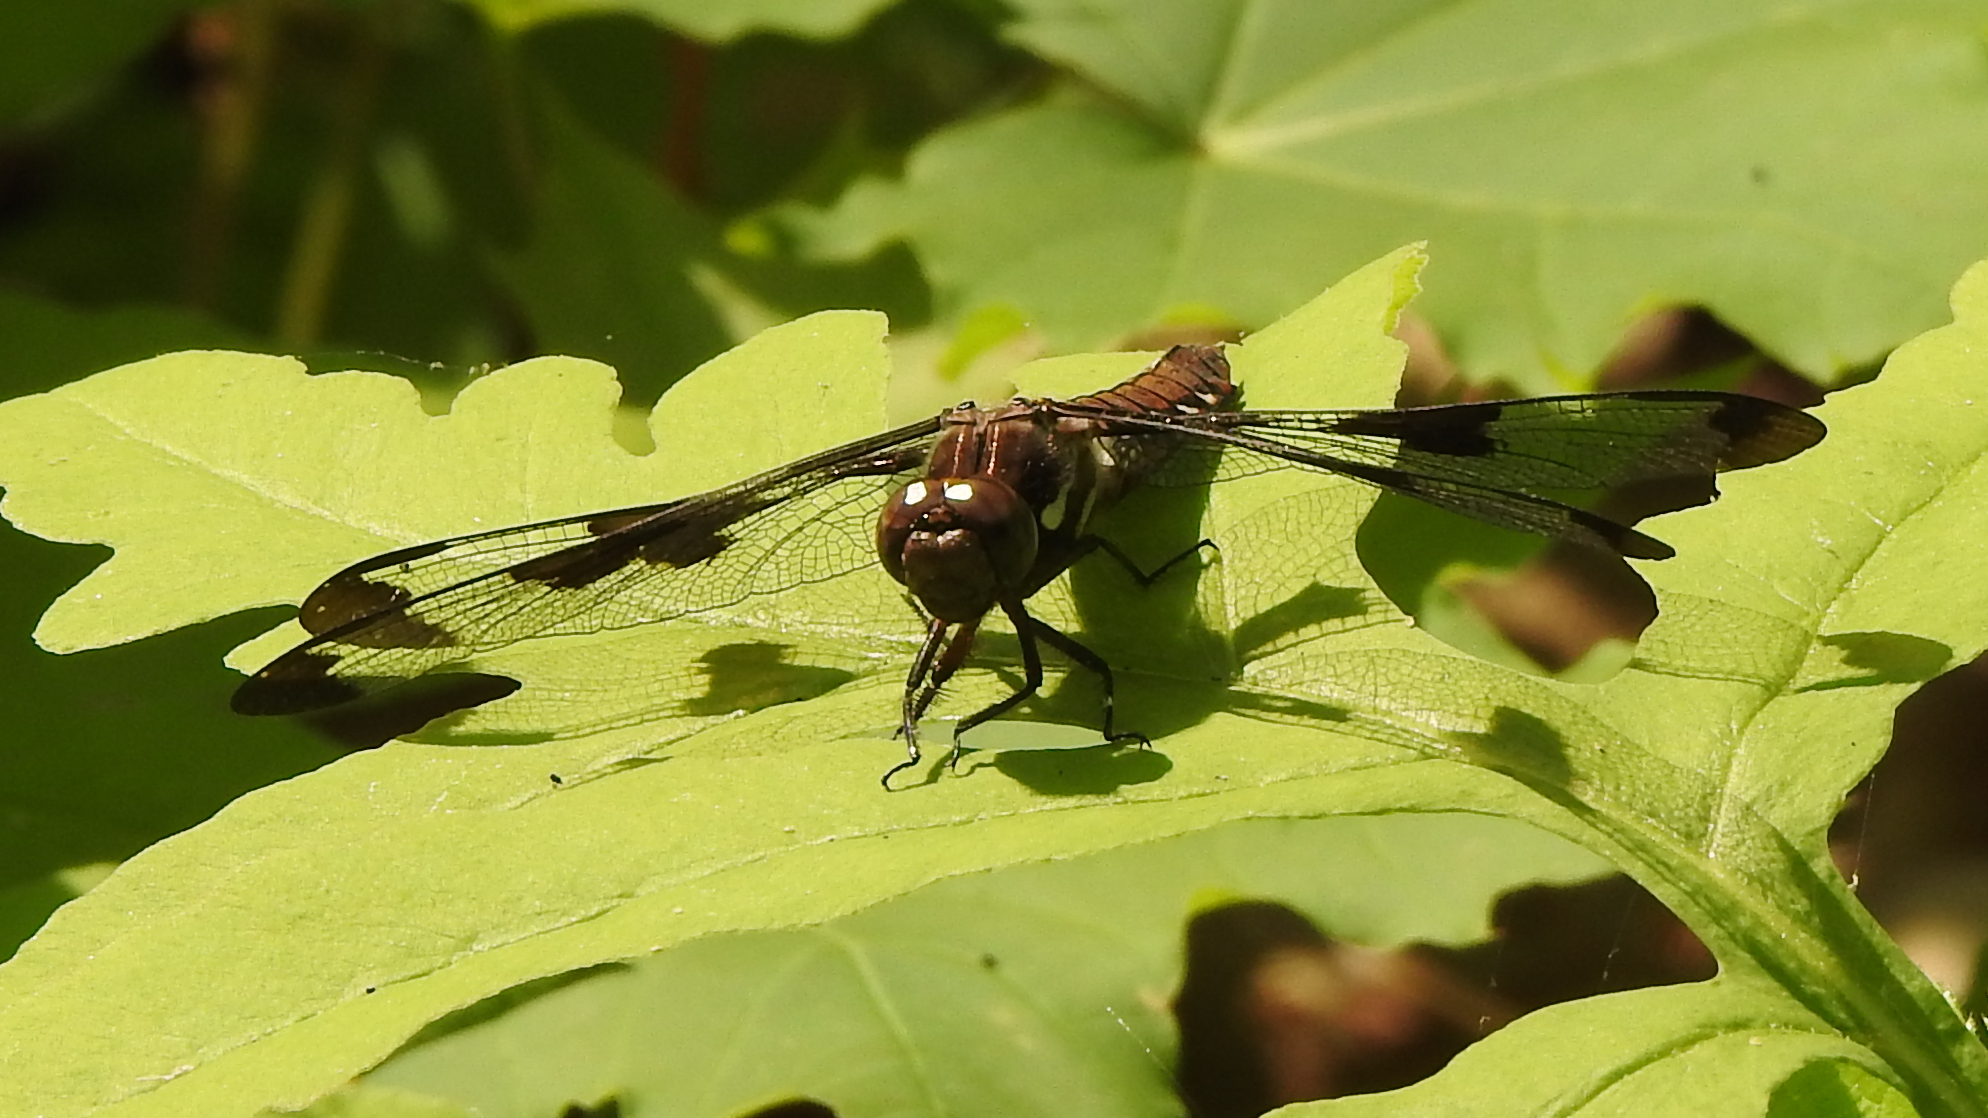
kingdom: Animalia
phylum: Arthropoda
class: Insecta
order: Odonata
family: Libellulidae
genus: Plathemis
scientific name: Plathemis lydia
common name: Common whitetail
